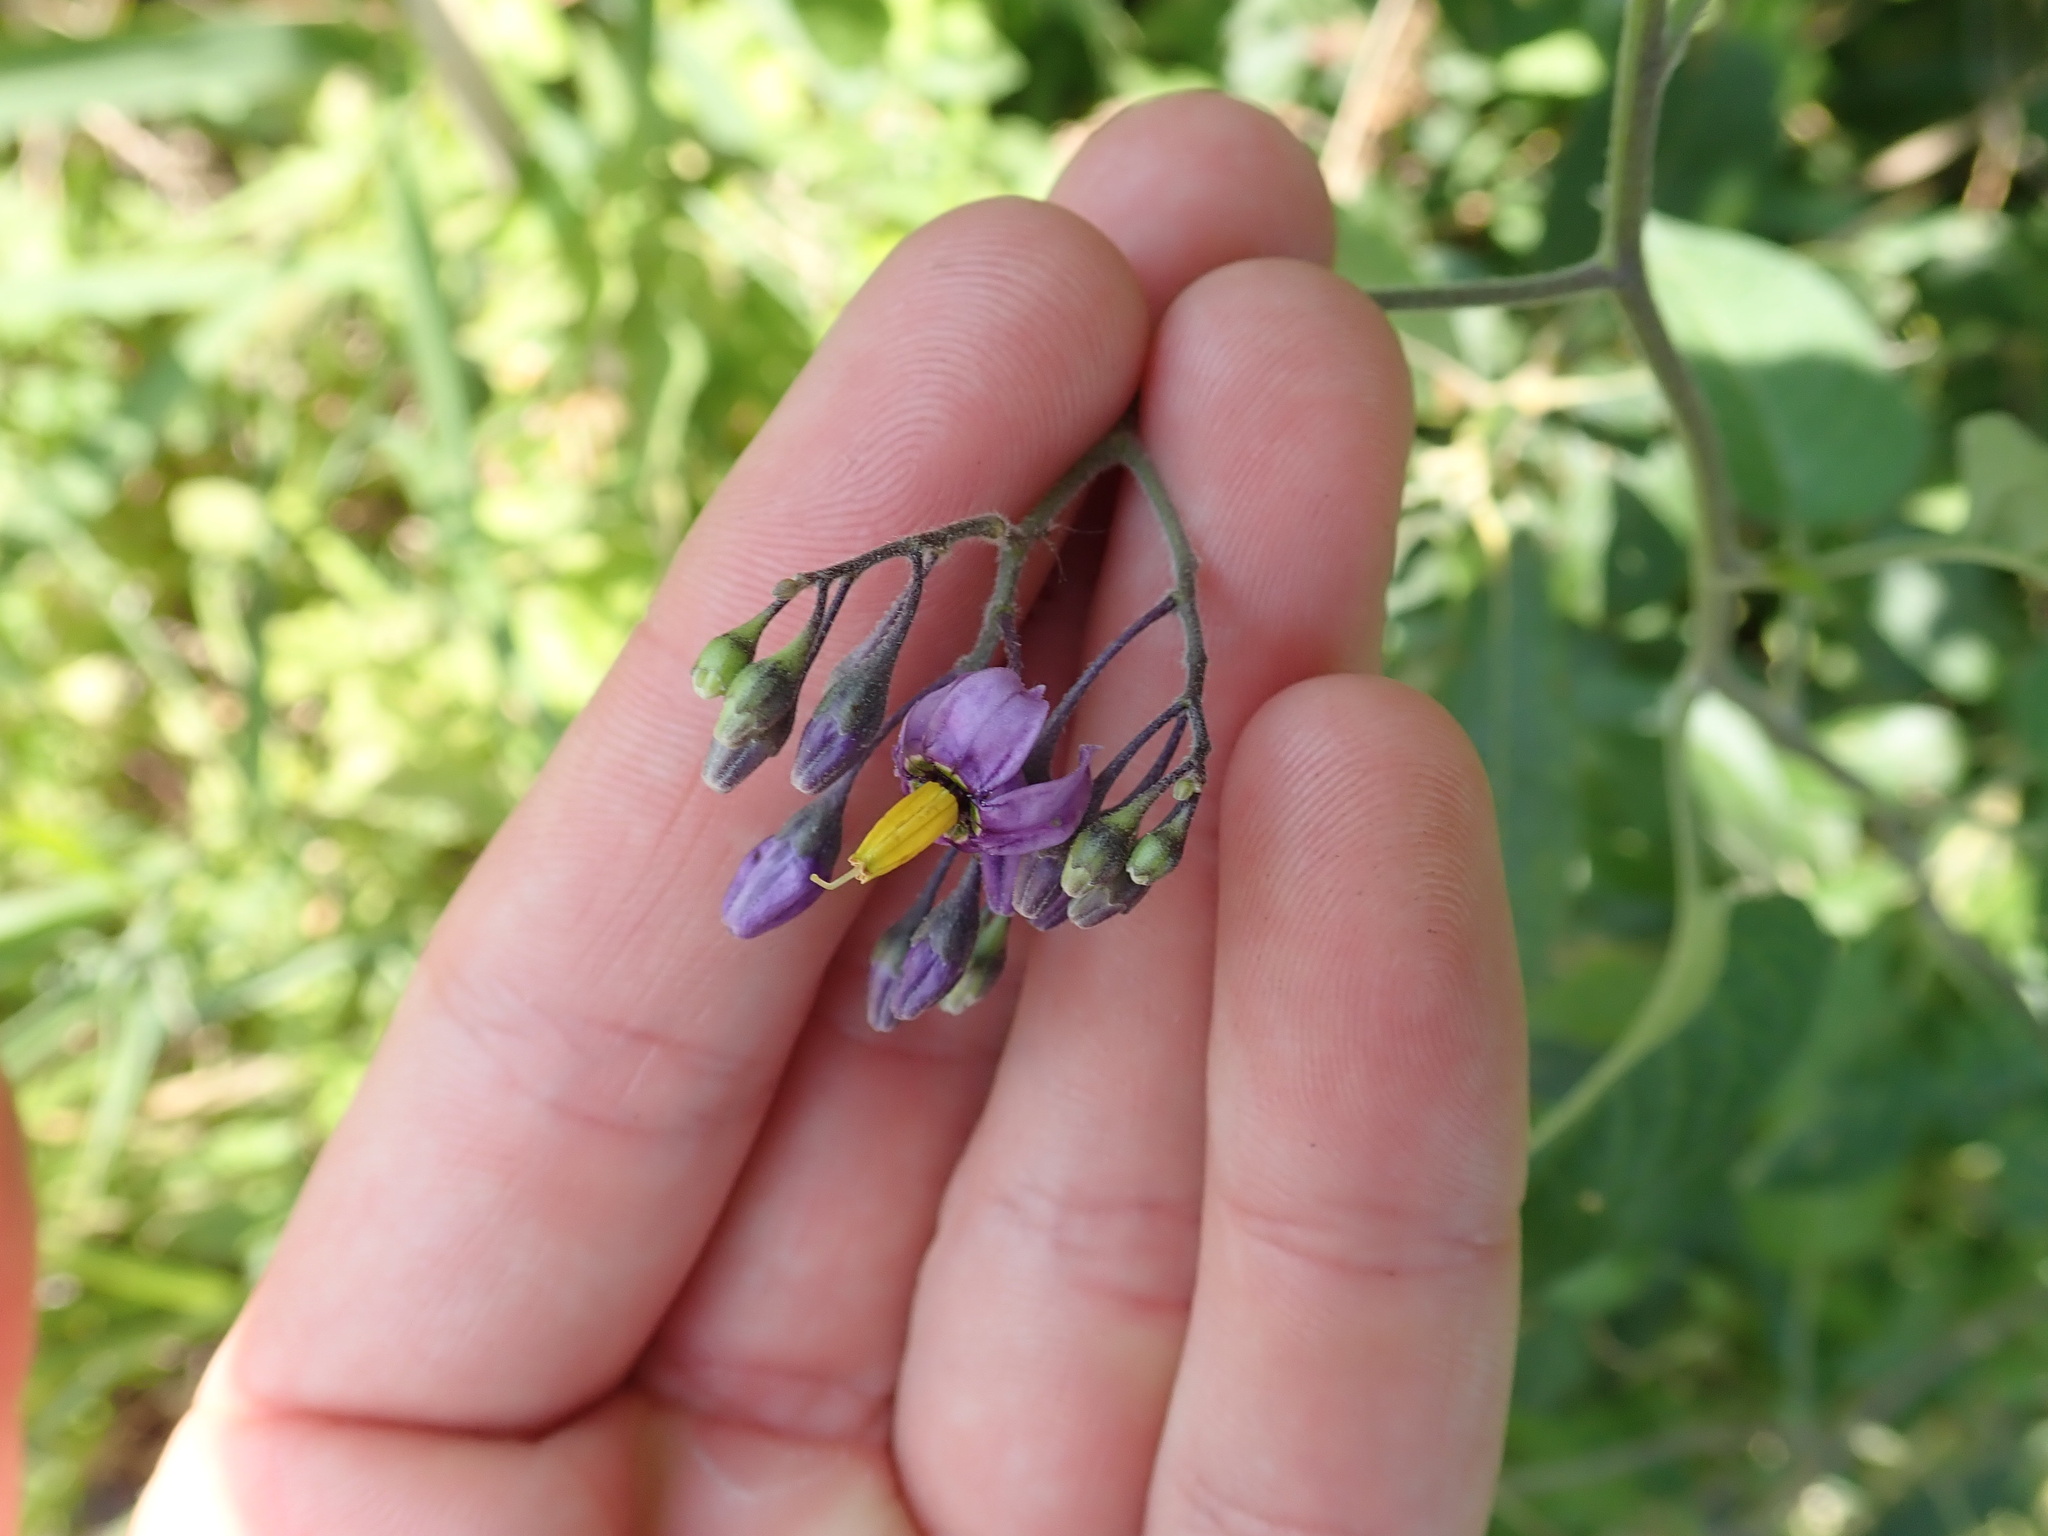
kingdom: Plantae
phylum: Tracheophyta
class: Magnoliopsida
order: Solanales
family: Solanaceae
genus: Solanum
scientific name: Solanum dulcamara
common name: Climbing nightshade
